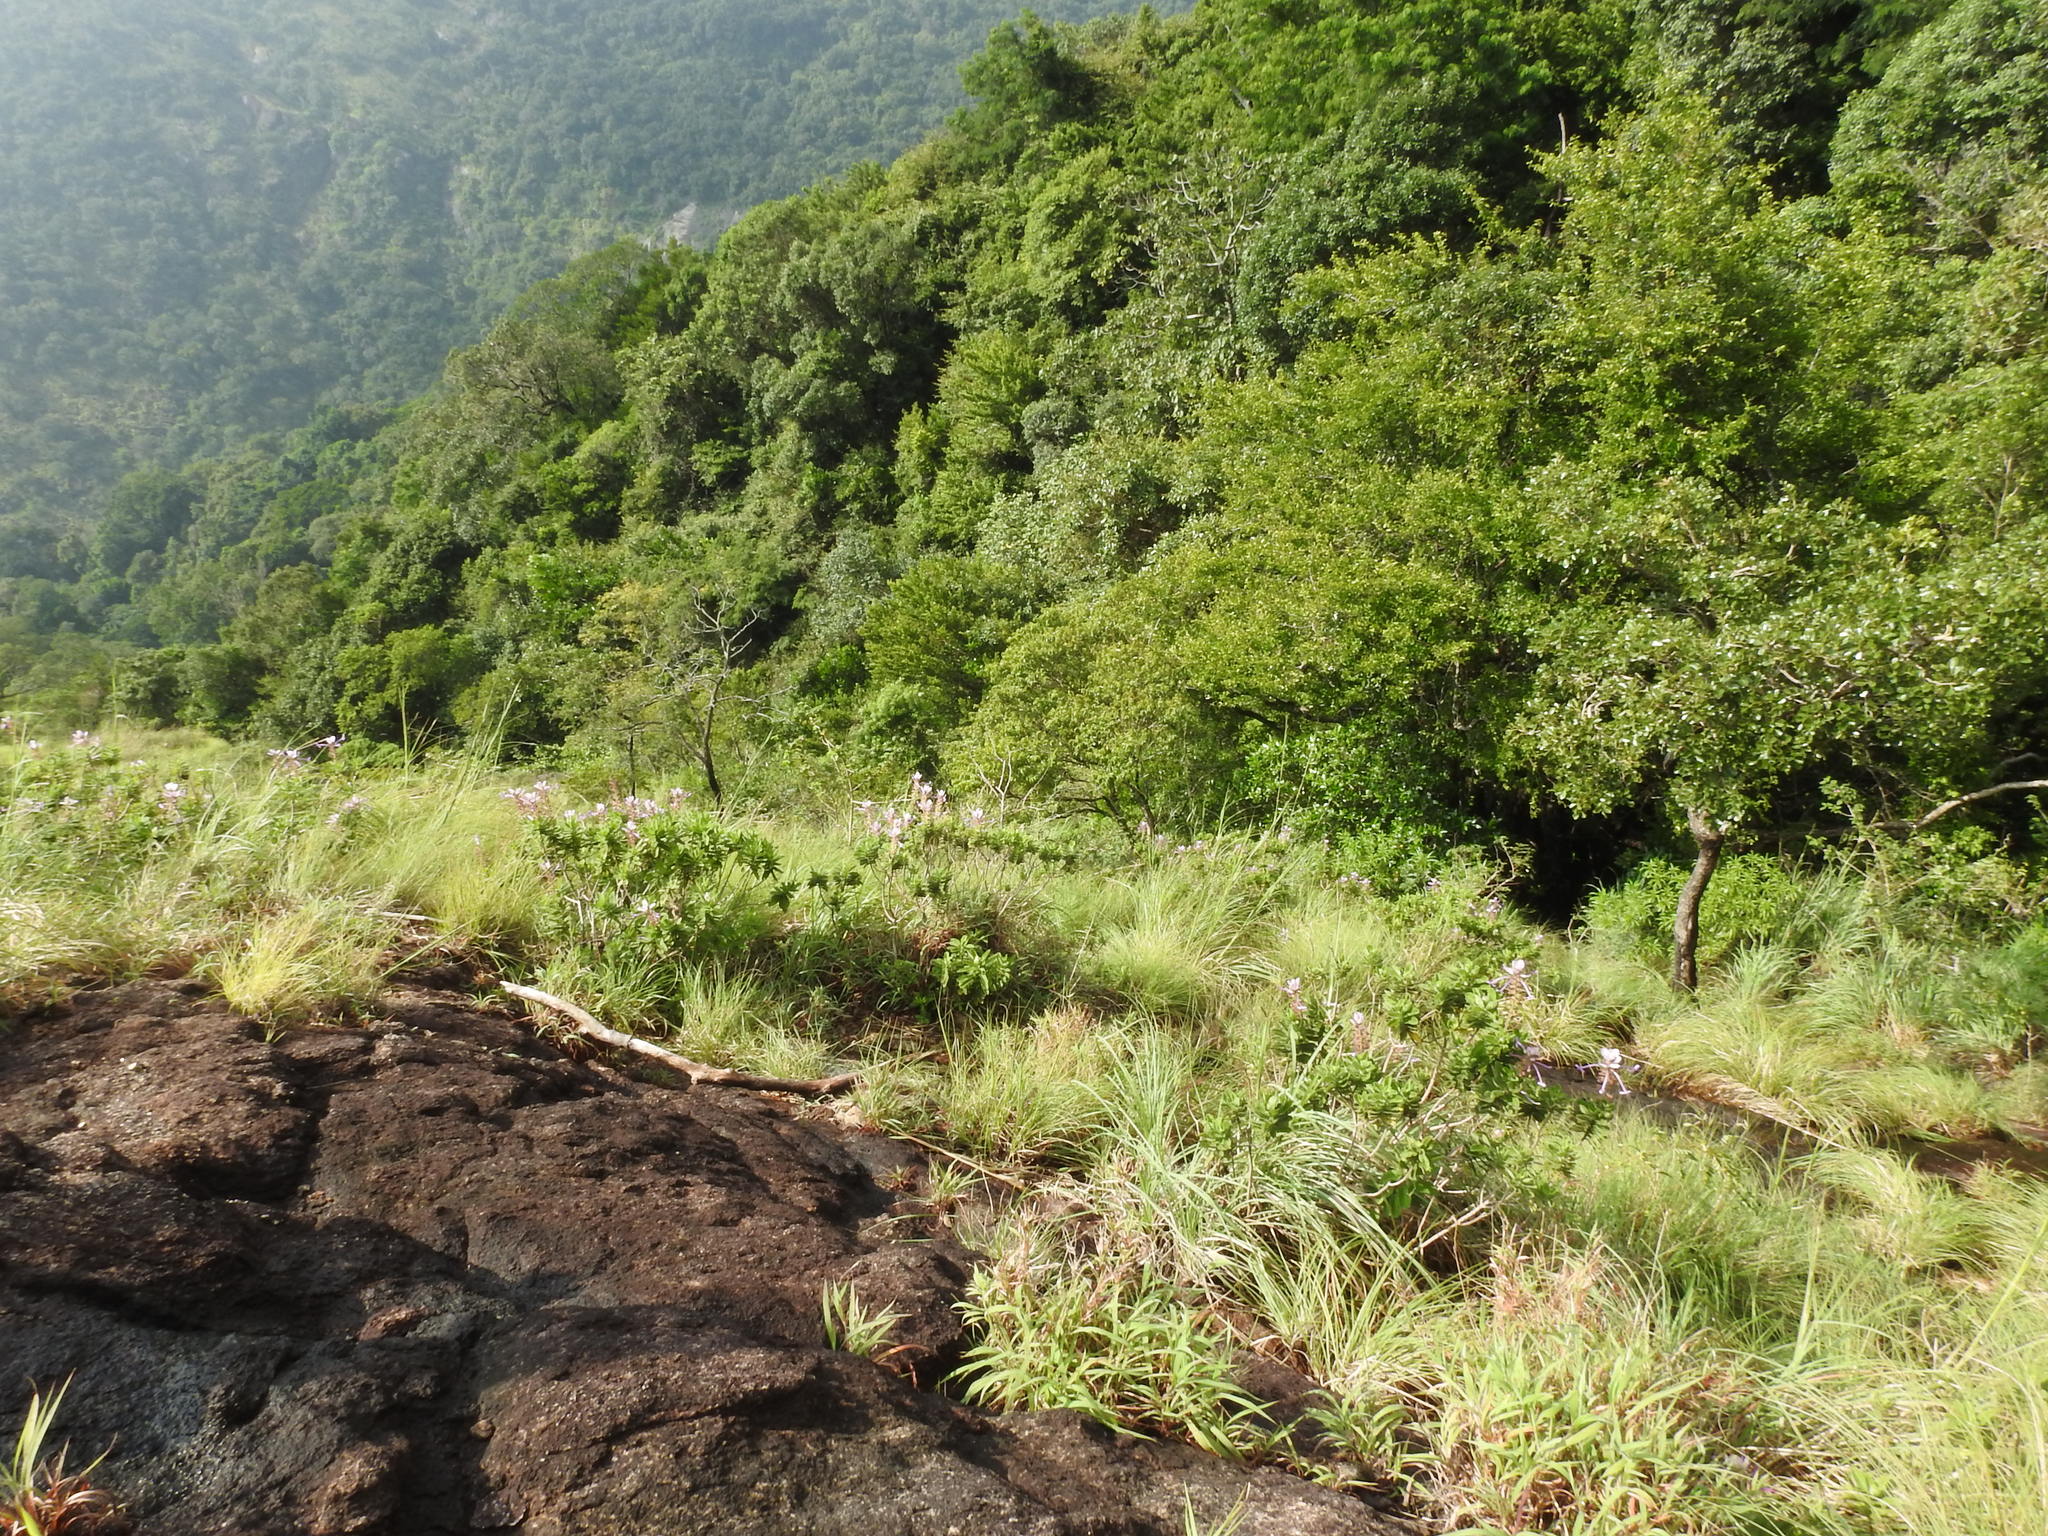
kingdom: Plantae
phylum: Tracheophyta
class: Magnoliopsida
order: Lamiales
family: Lamiaceae
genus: Syncolostemon
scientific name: Syncolostemon comosus
